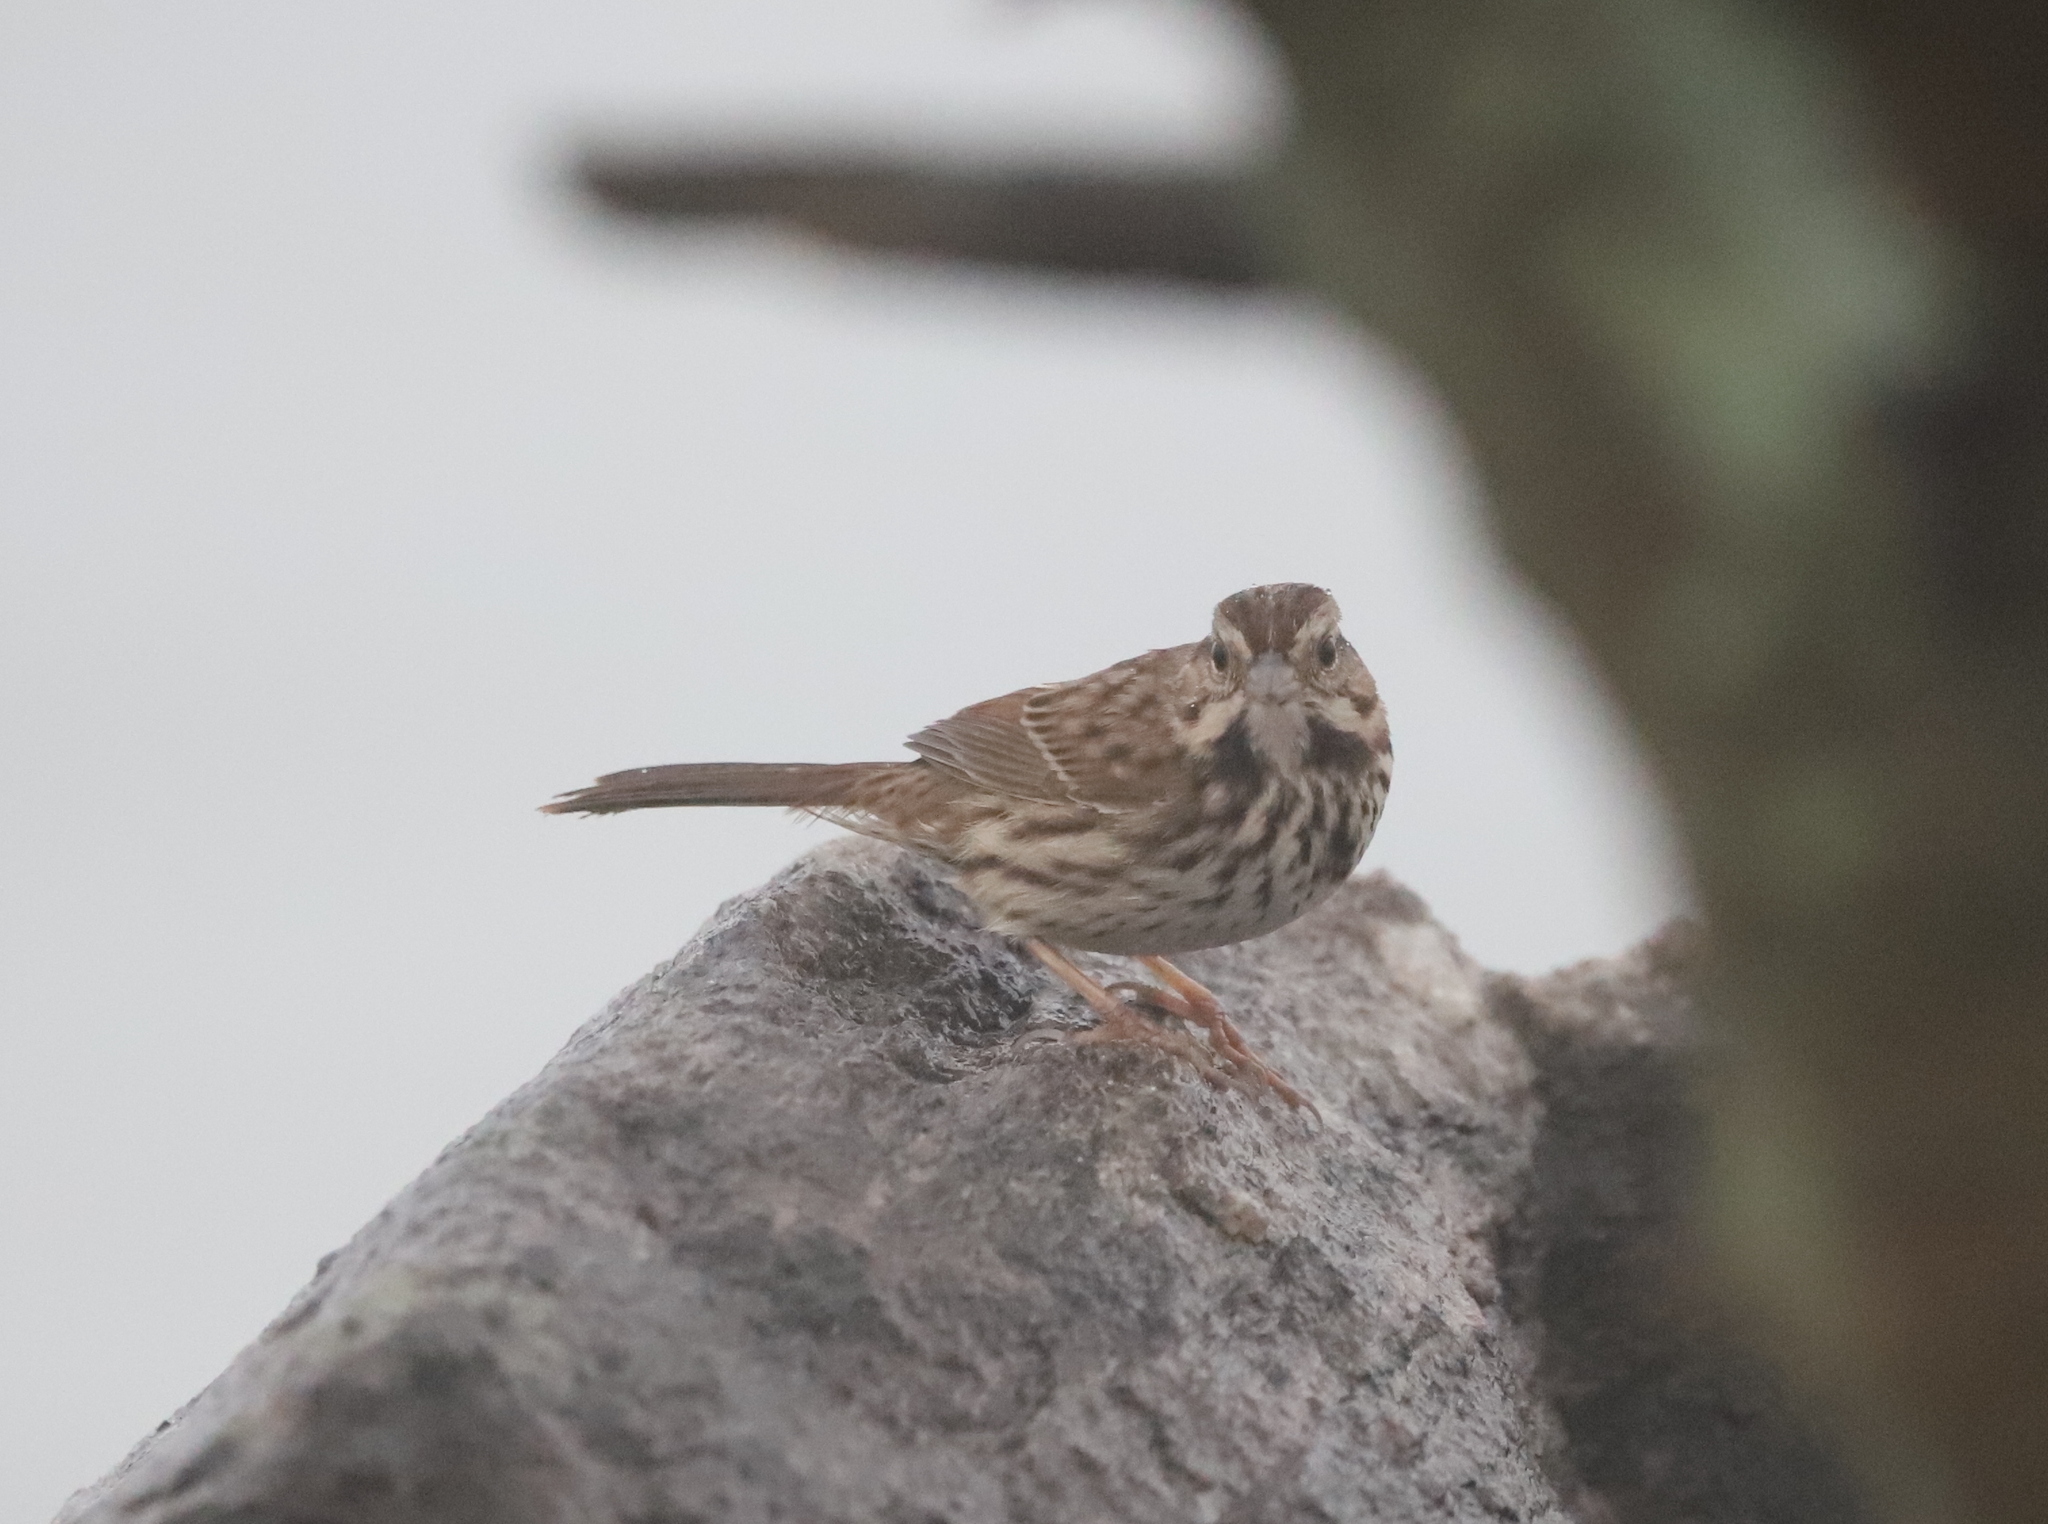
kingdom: Animalia
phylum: Chordata
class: Aves
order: Passeriformes
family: Passerellidae
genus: Melospiza
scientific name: Melospiza melodia
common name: Song sparrow
